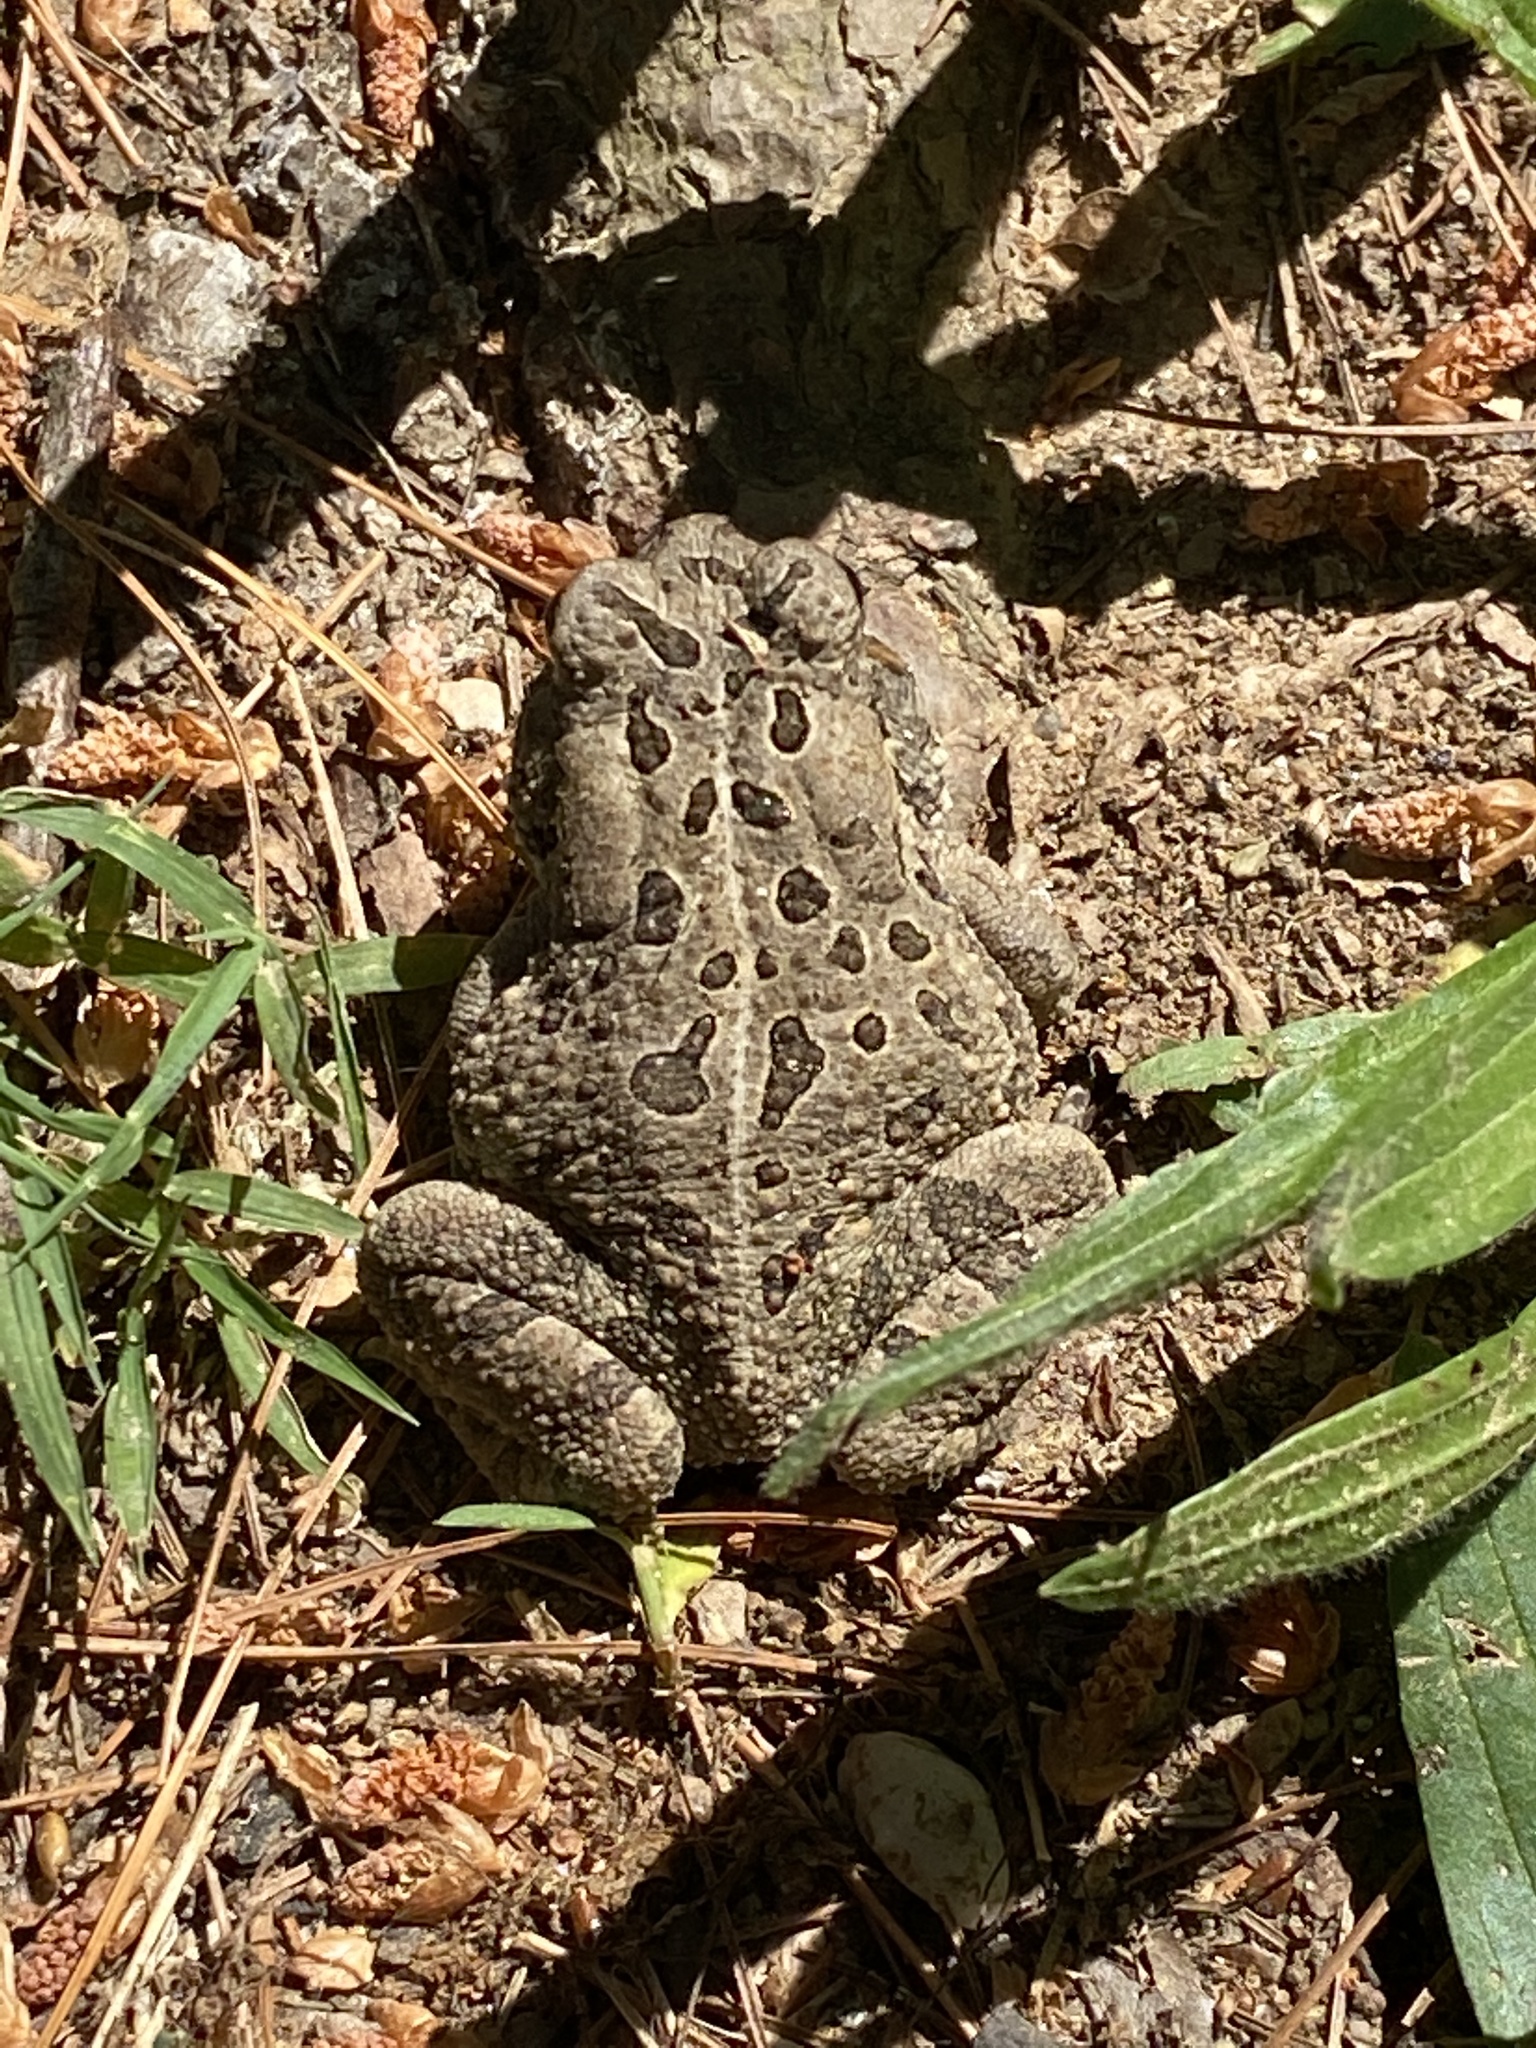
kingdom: Animalia
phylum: Chordata
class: Amphibia
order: Anura
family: Bufonidae
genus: Anaxyrus
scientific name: Anaxyrus fowleri
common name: Fowler's toad
